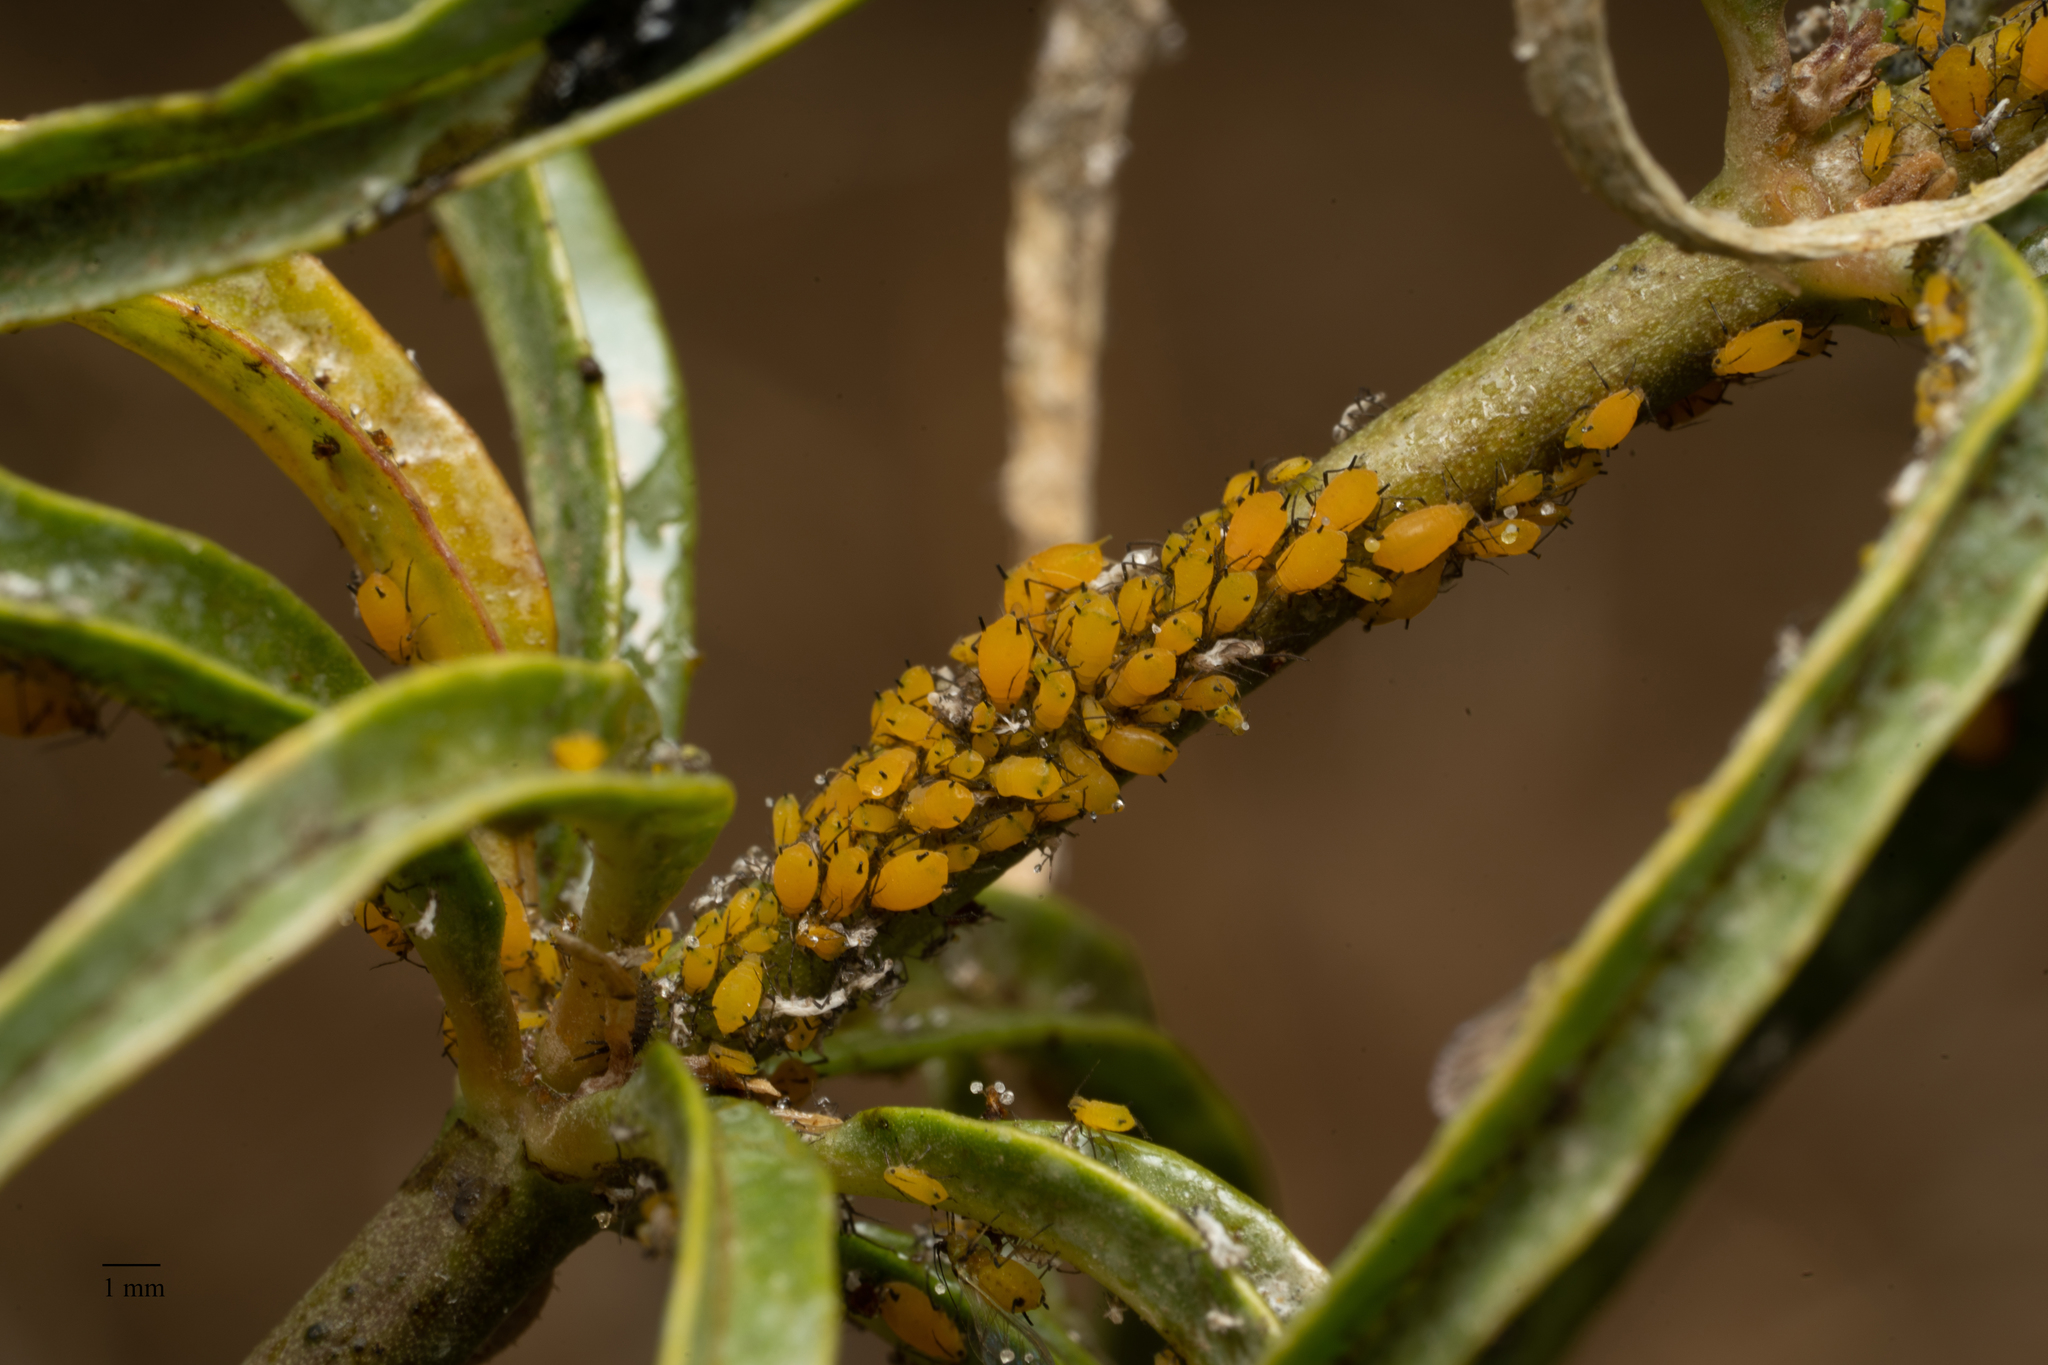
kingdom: Animalia
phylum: Arthropoda
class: Insecta
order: Hemiptera
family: Aphididae
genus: Aphis
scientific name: Aphis nerii
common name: Oleander aphid
